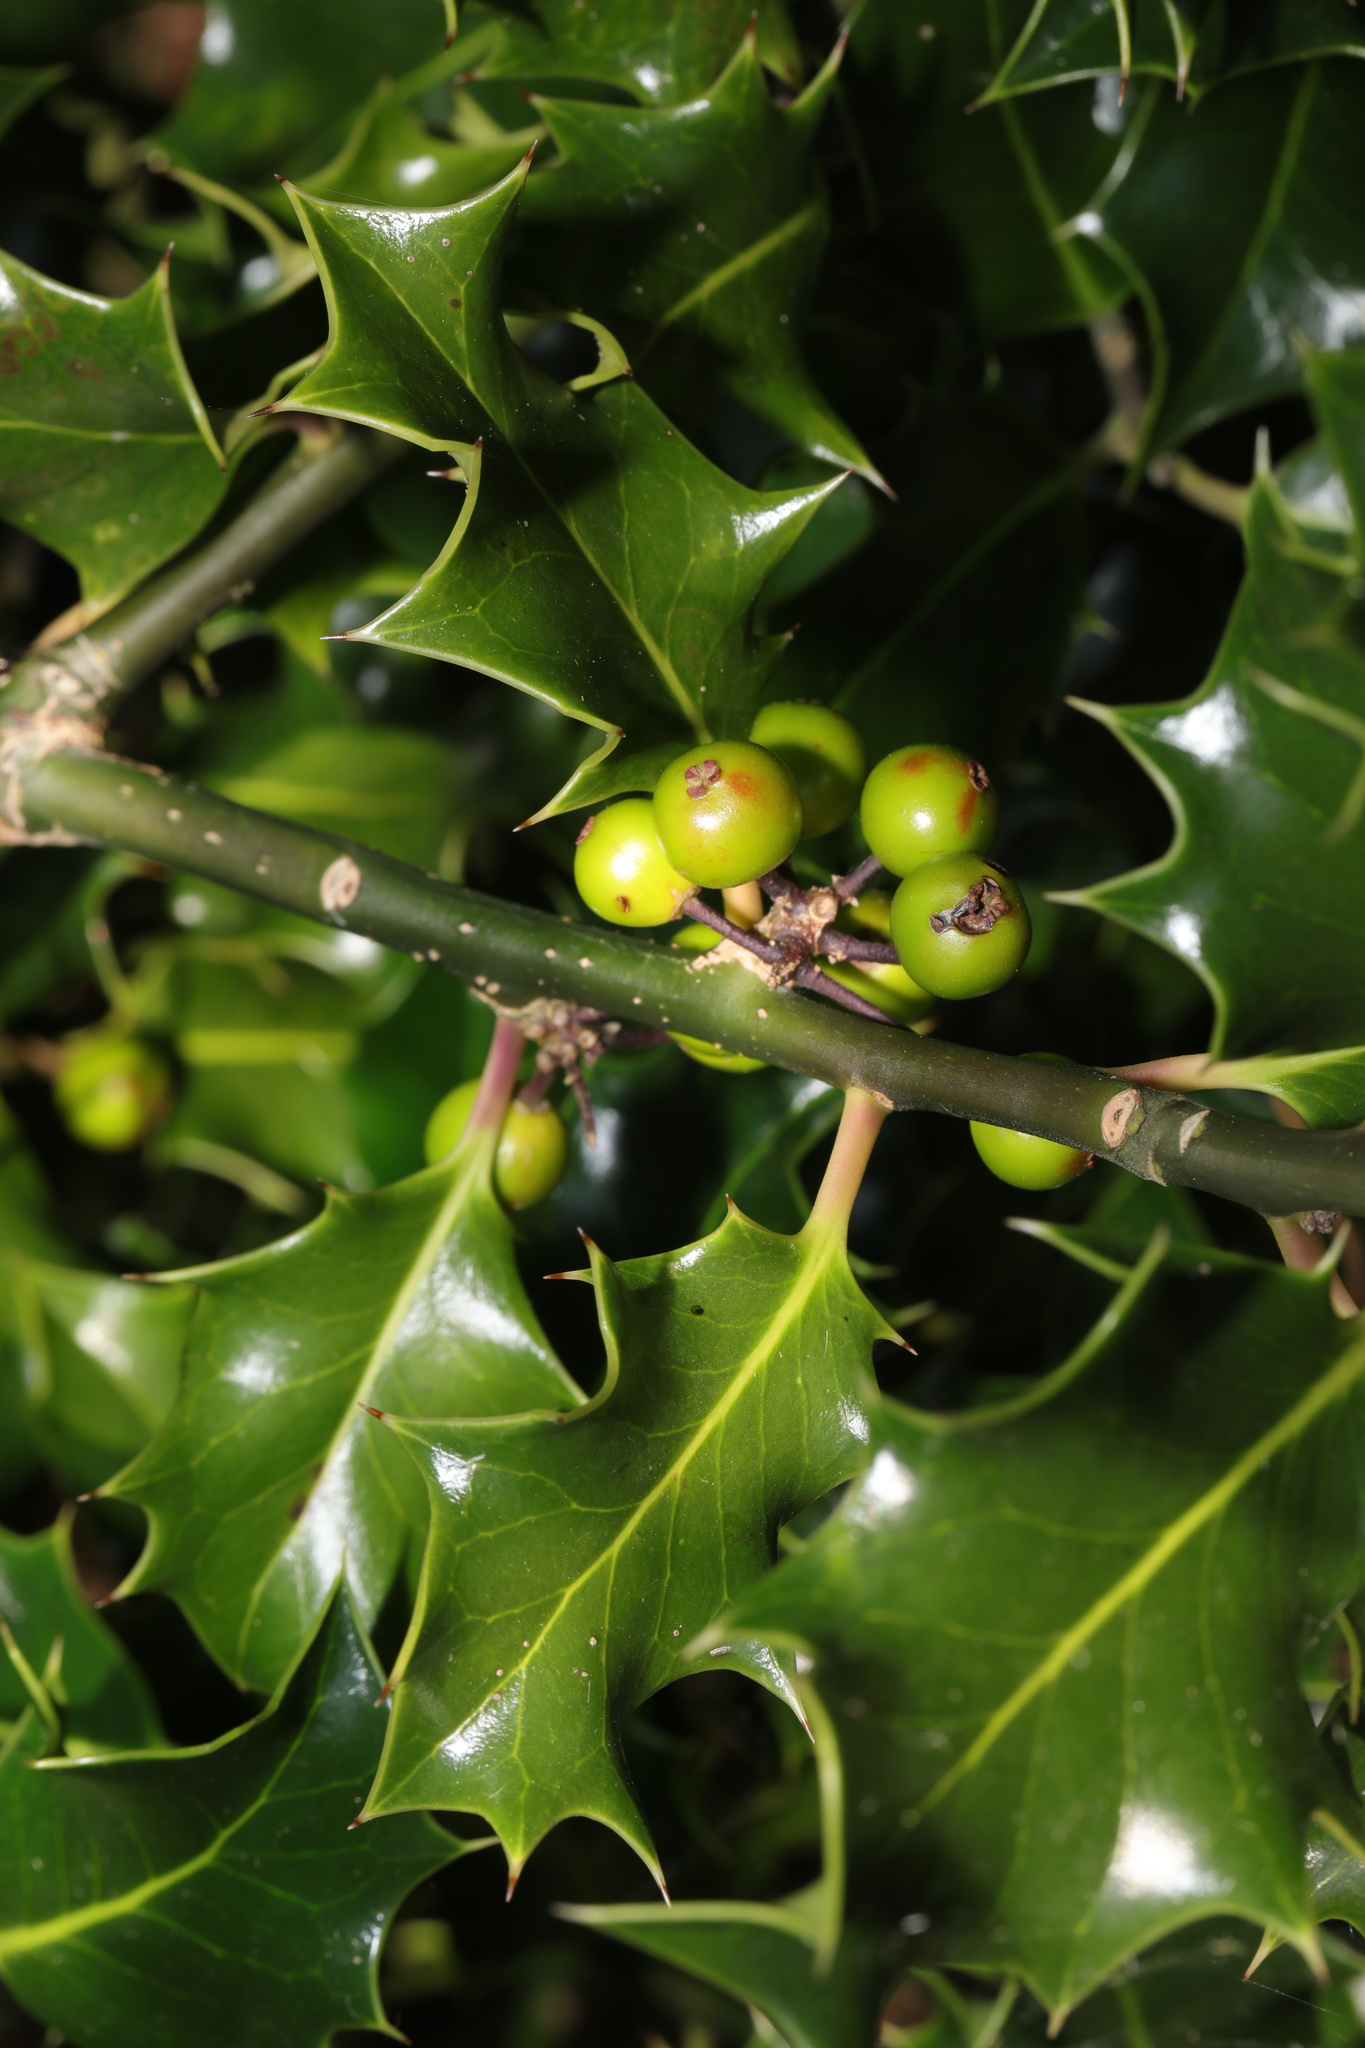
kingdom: Plantae
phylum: Tracheophyta
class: Magnoliopsida
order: Aquifoliales
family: Aquifoliaceae
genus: Ilex
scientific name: Ilex aquifolium
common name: English holly
